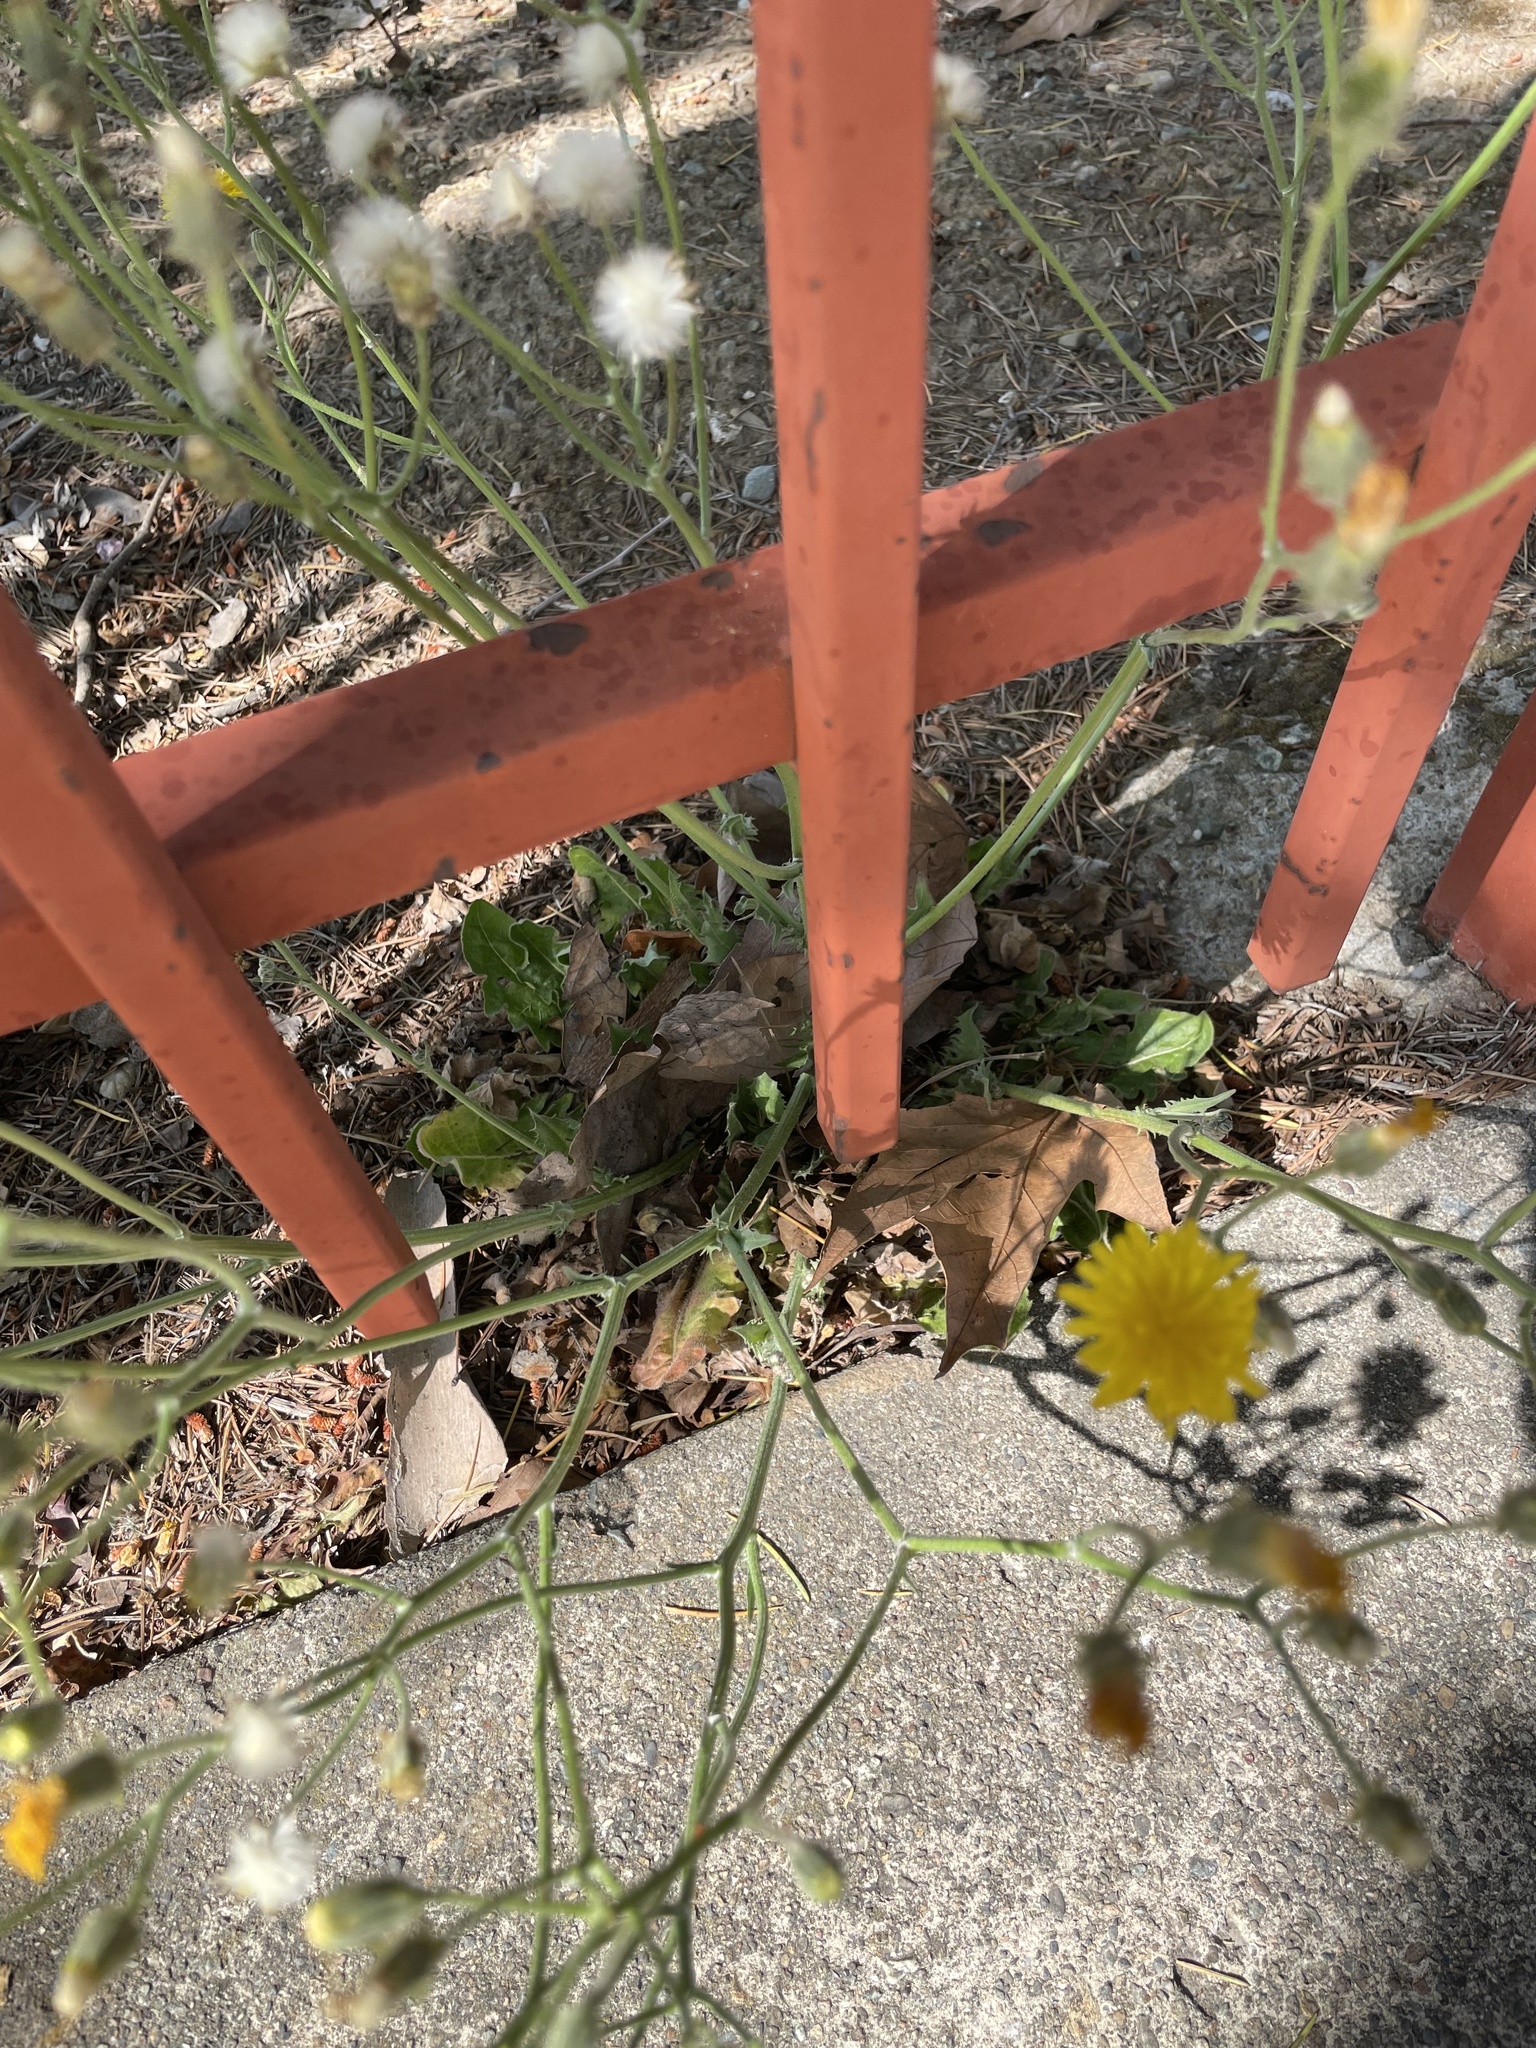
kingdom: Plantae
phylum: Tracheophyta
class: Magnoliopsida
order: Asterales
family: Asteraceae
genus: Crepis
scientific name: Crepis vesicaria
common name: Beaked hawksbeard
